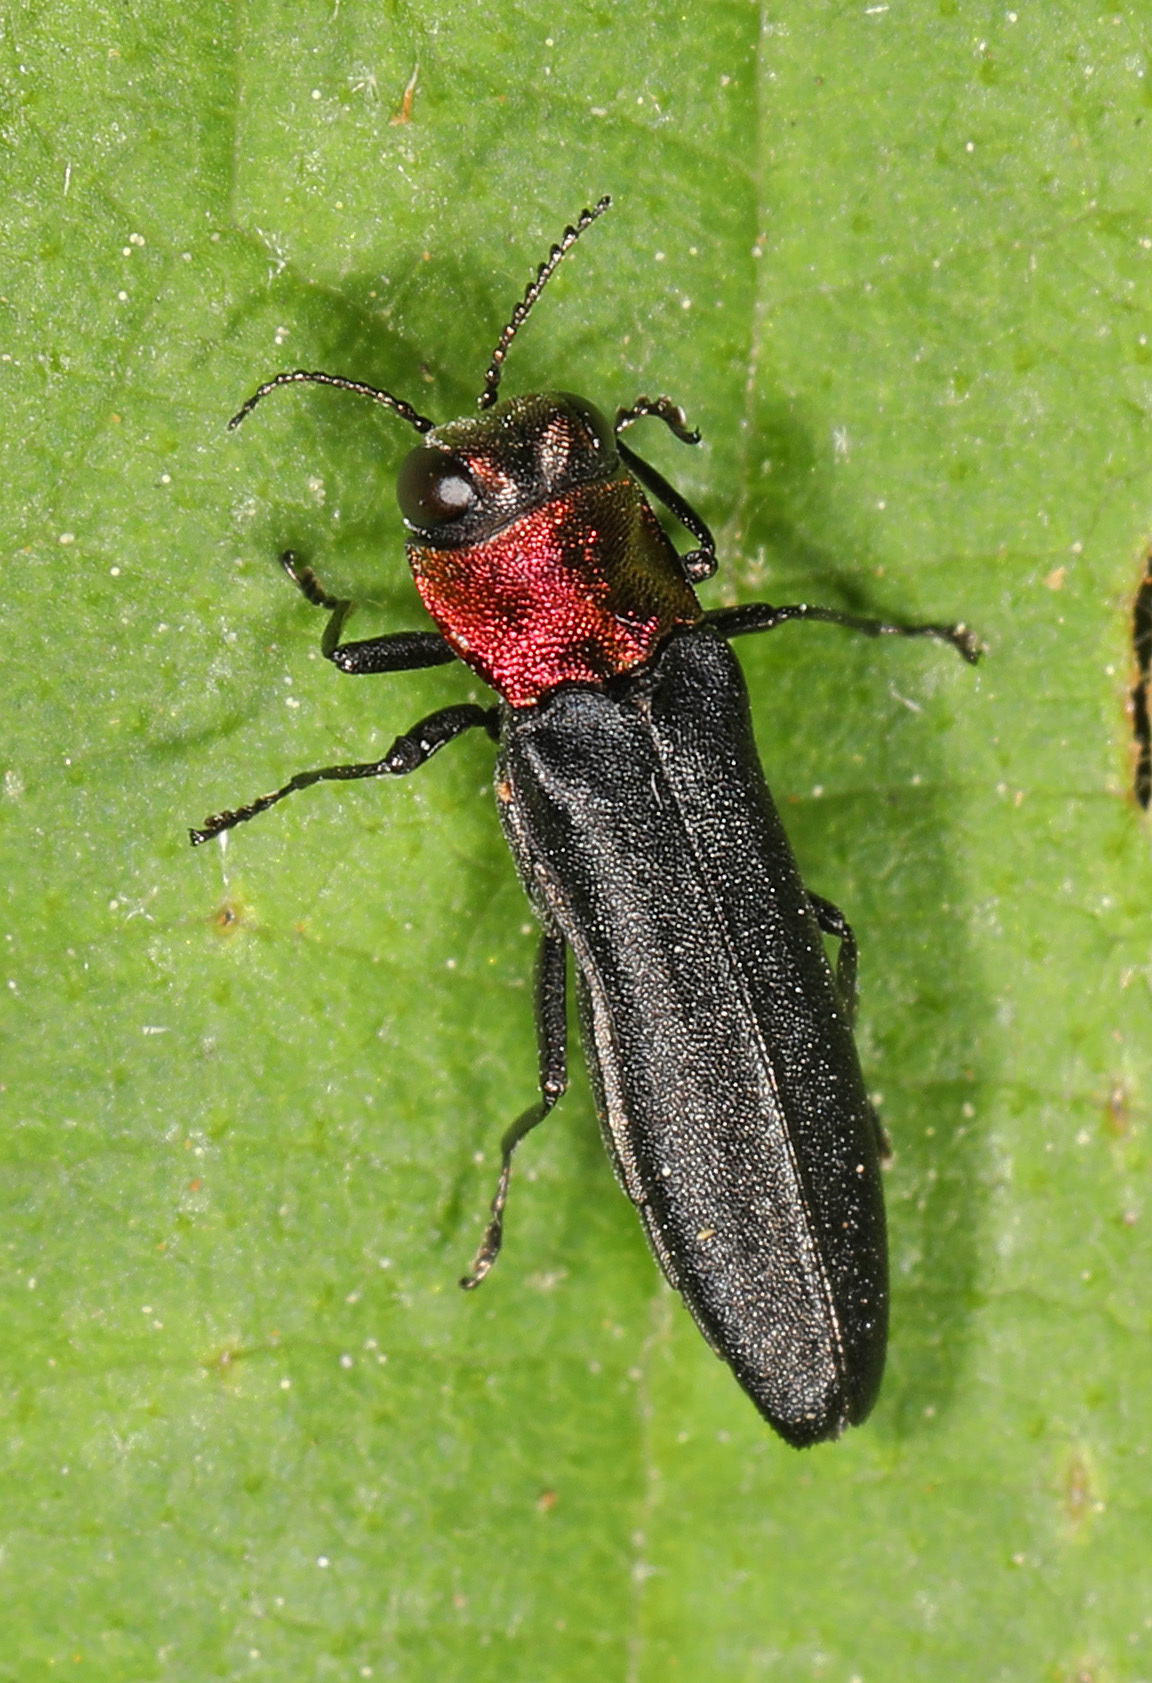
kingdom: Animalia
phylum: Arthropoda
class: Insecta
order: Coleoptera
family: Buprestidae
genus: Agrilus
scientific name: Agrilus ruficollis
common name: Red-necked cane borer beetle
